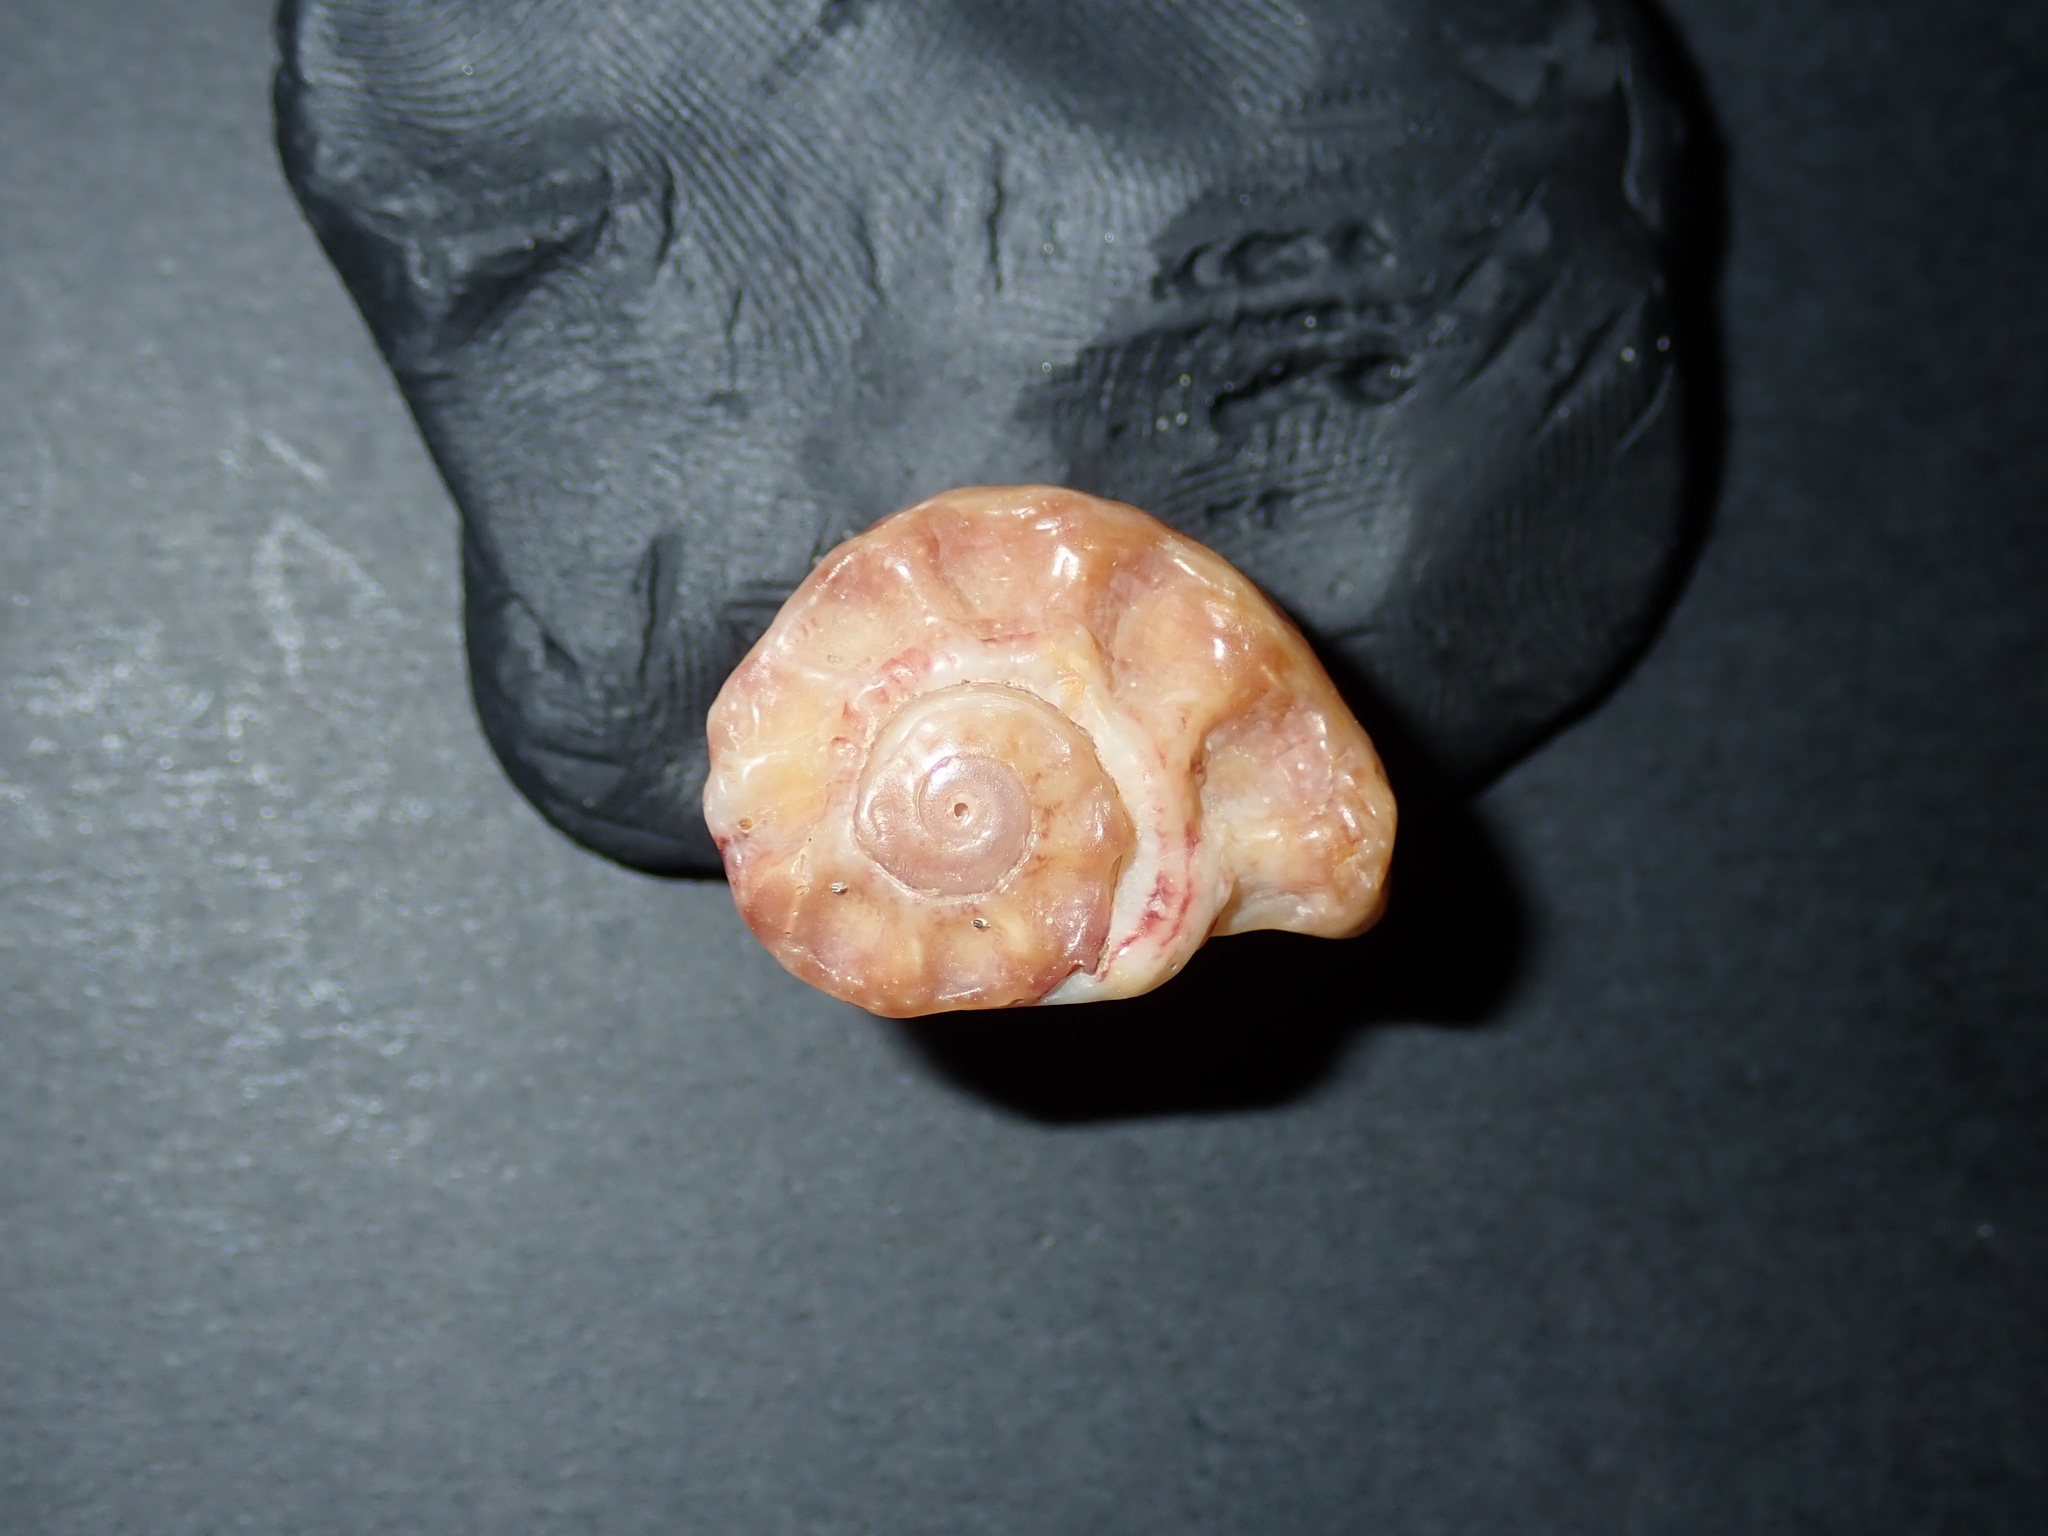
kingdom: Animalia
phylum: Mollusca
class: Gastropoda
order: Trochida
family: Angariidae
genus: Angaria
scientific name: Angaria delphinus
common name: Dolphin shell
